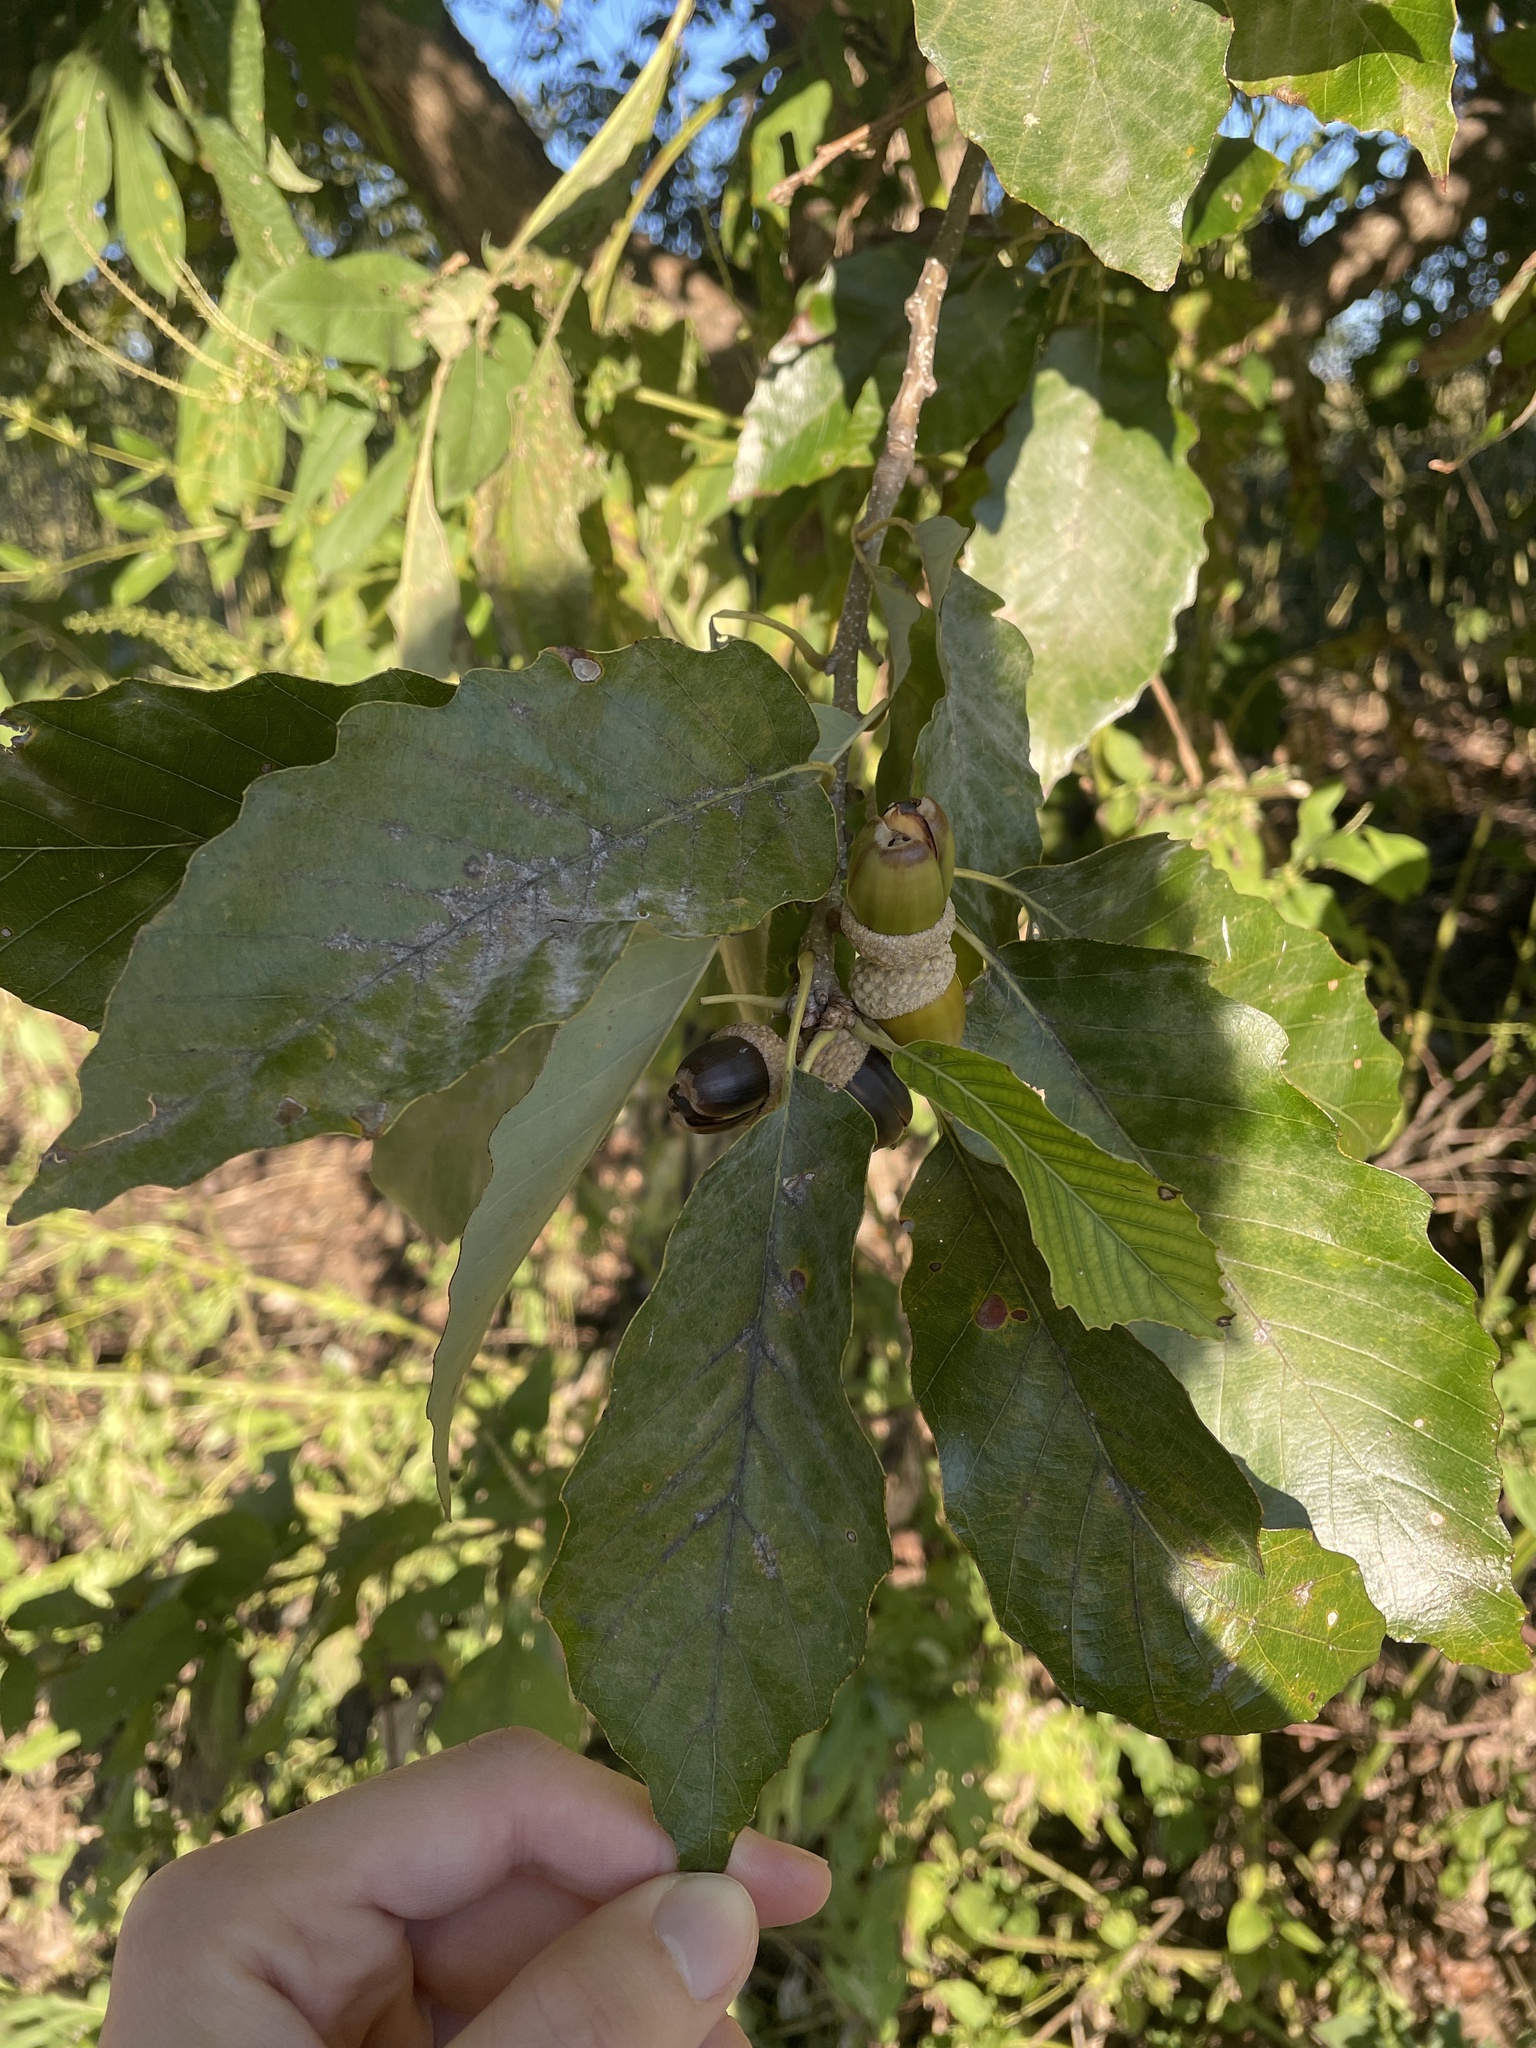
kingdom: Plantae
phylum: Tracheophyta
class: Magnoliopsida
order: Fagales
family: Fagaceae
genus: Quercus
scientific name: Quercus muehlenbergii
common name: Chinkapin oak
